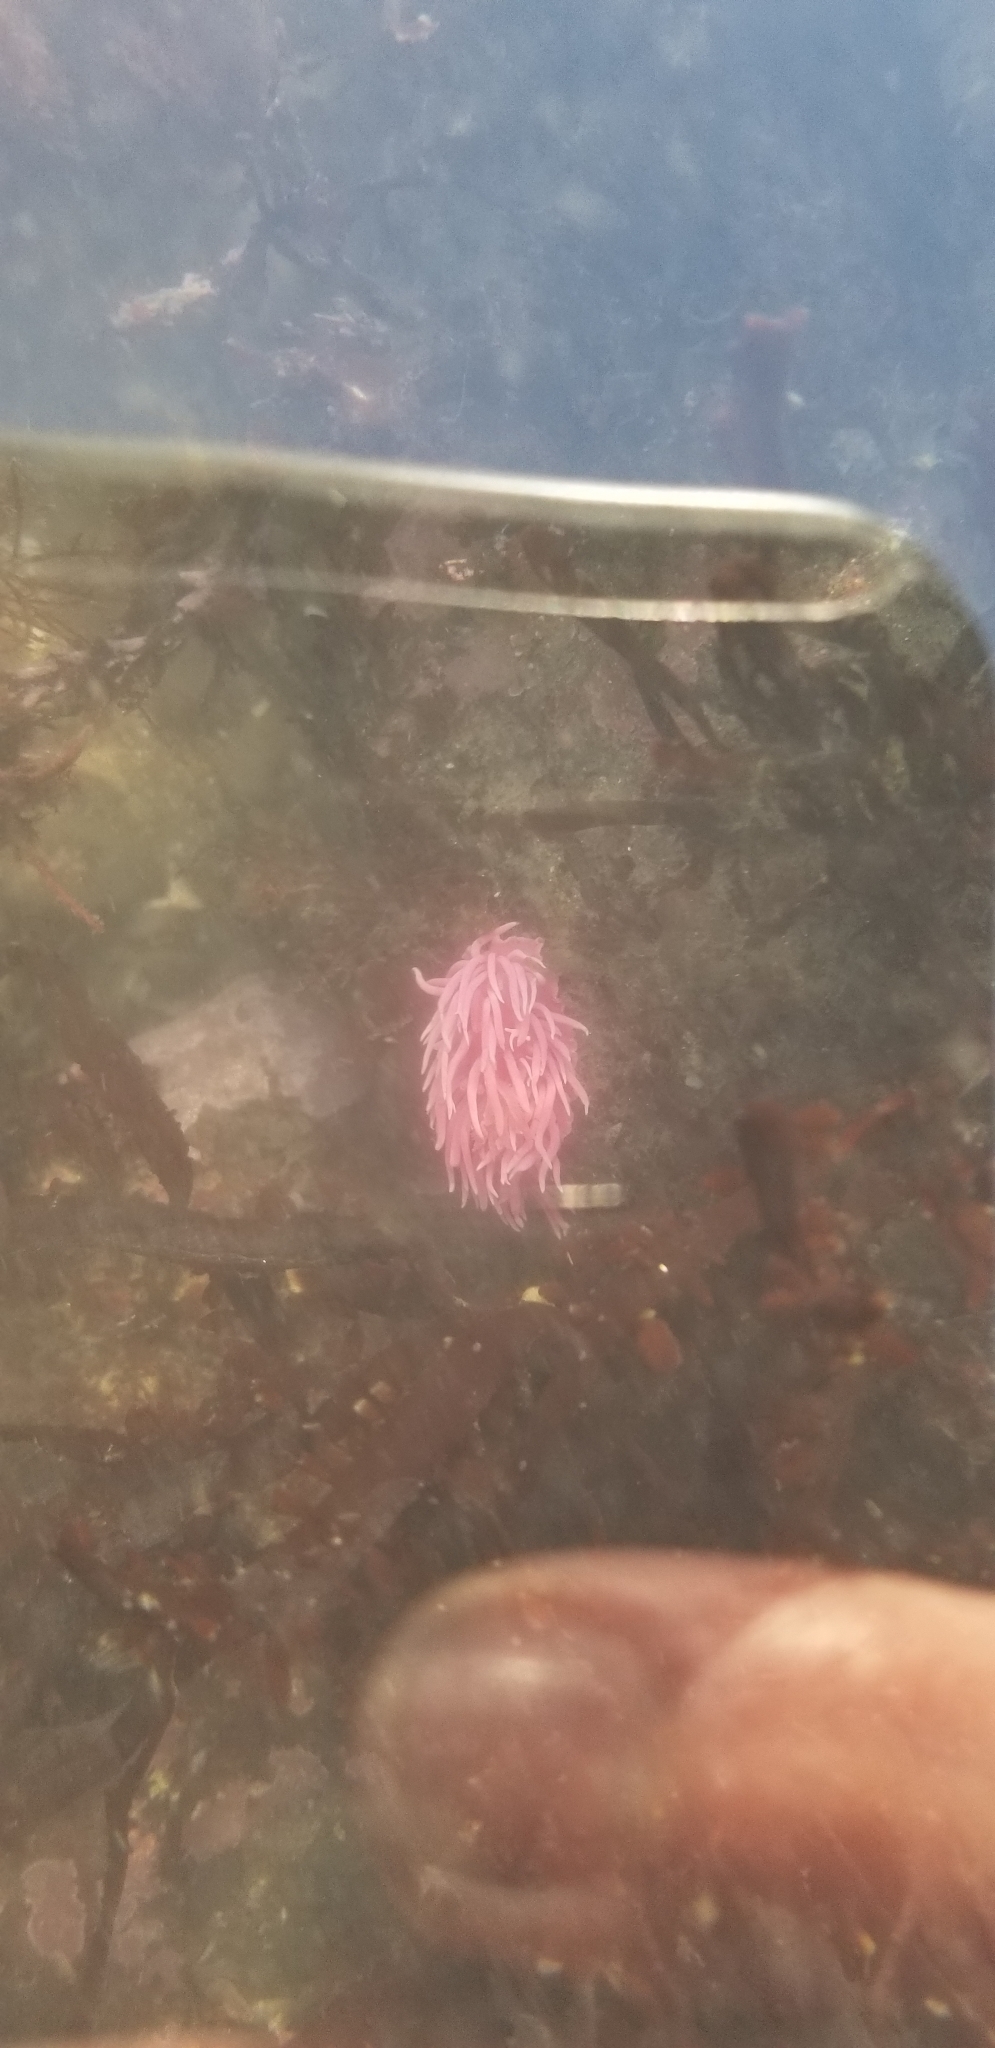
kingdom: Animalia
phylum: Mollusca
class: Gastropoda
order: Nudibranchia
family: Goniodorididae
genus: Okenia
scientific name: Okenia
